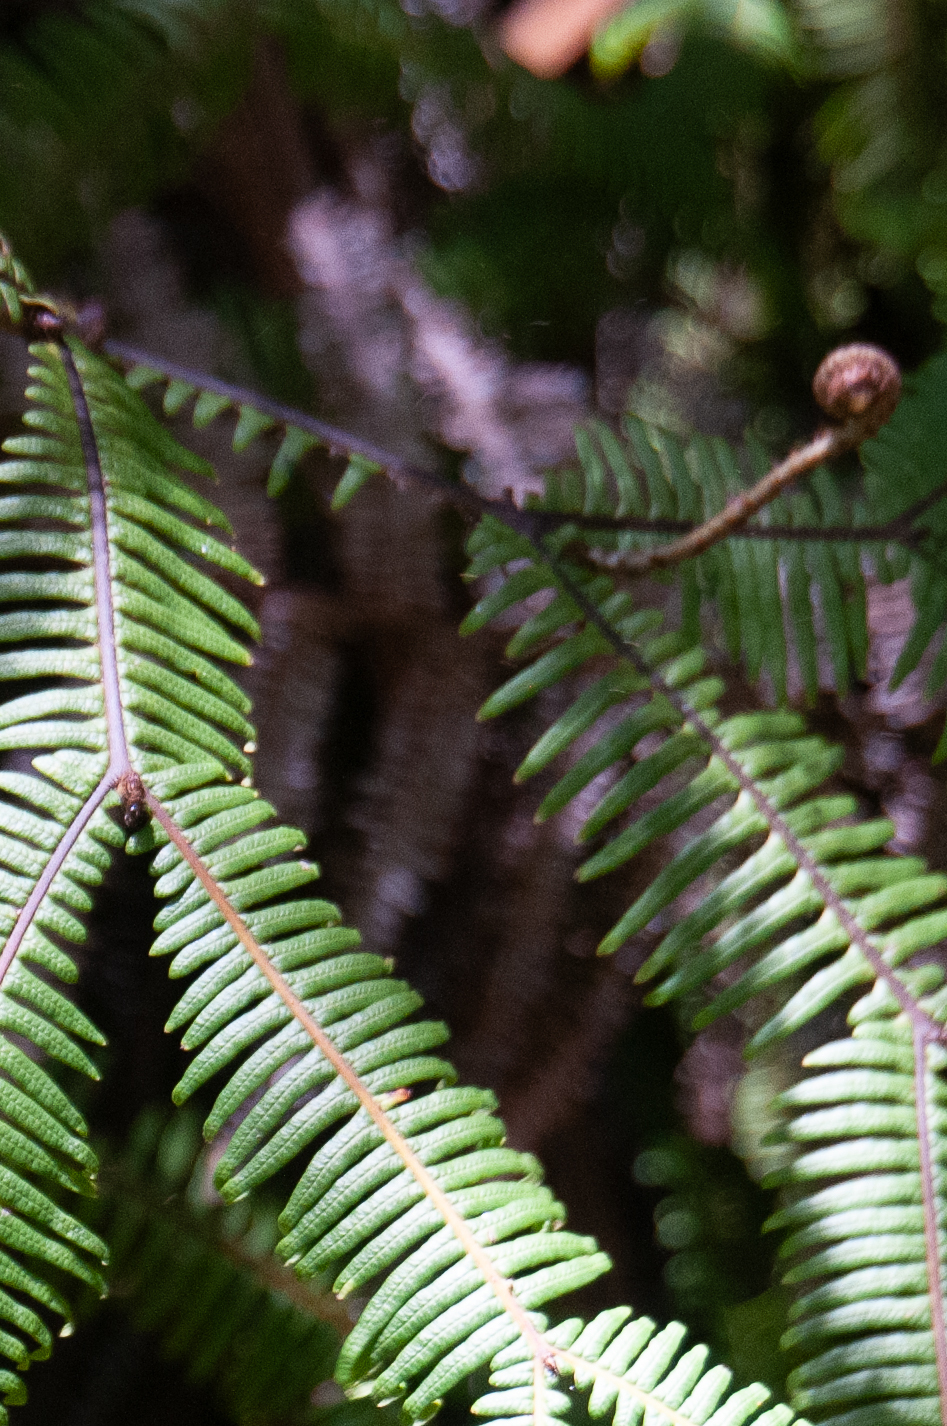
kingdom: Plantae
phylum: Tracheophyta
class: Polypodiopsida
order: Gleicheniales
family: Gleicheniaceae
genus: Dicranopteris
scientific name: Dicranopteris linearis
